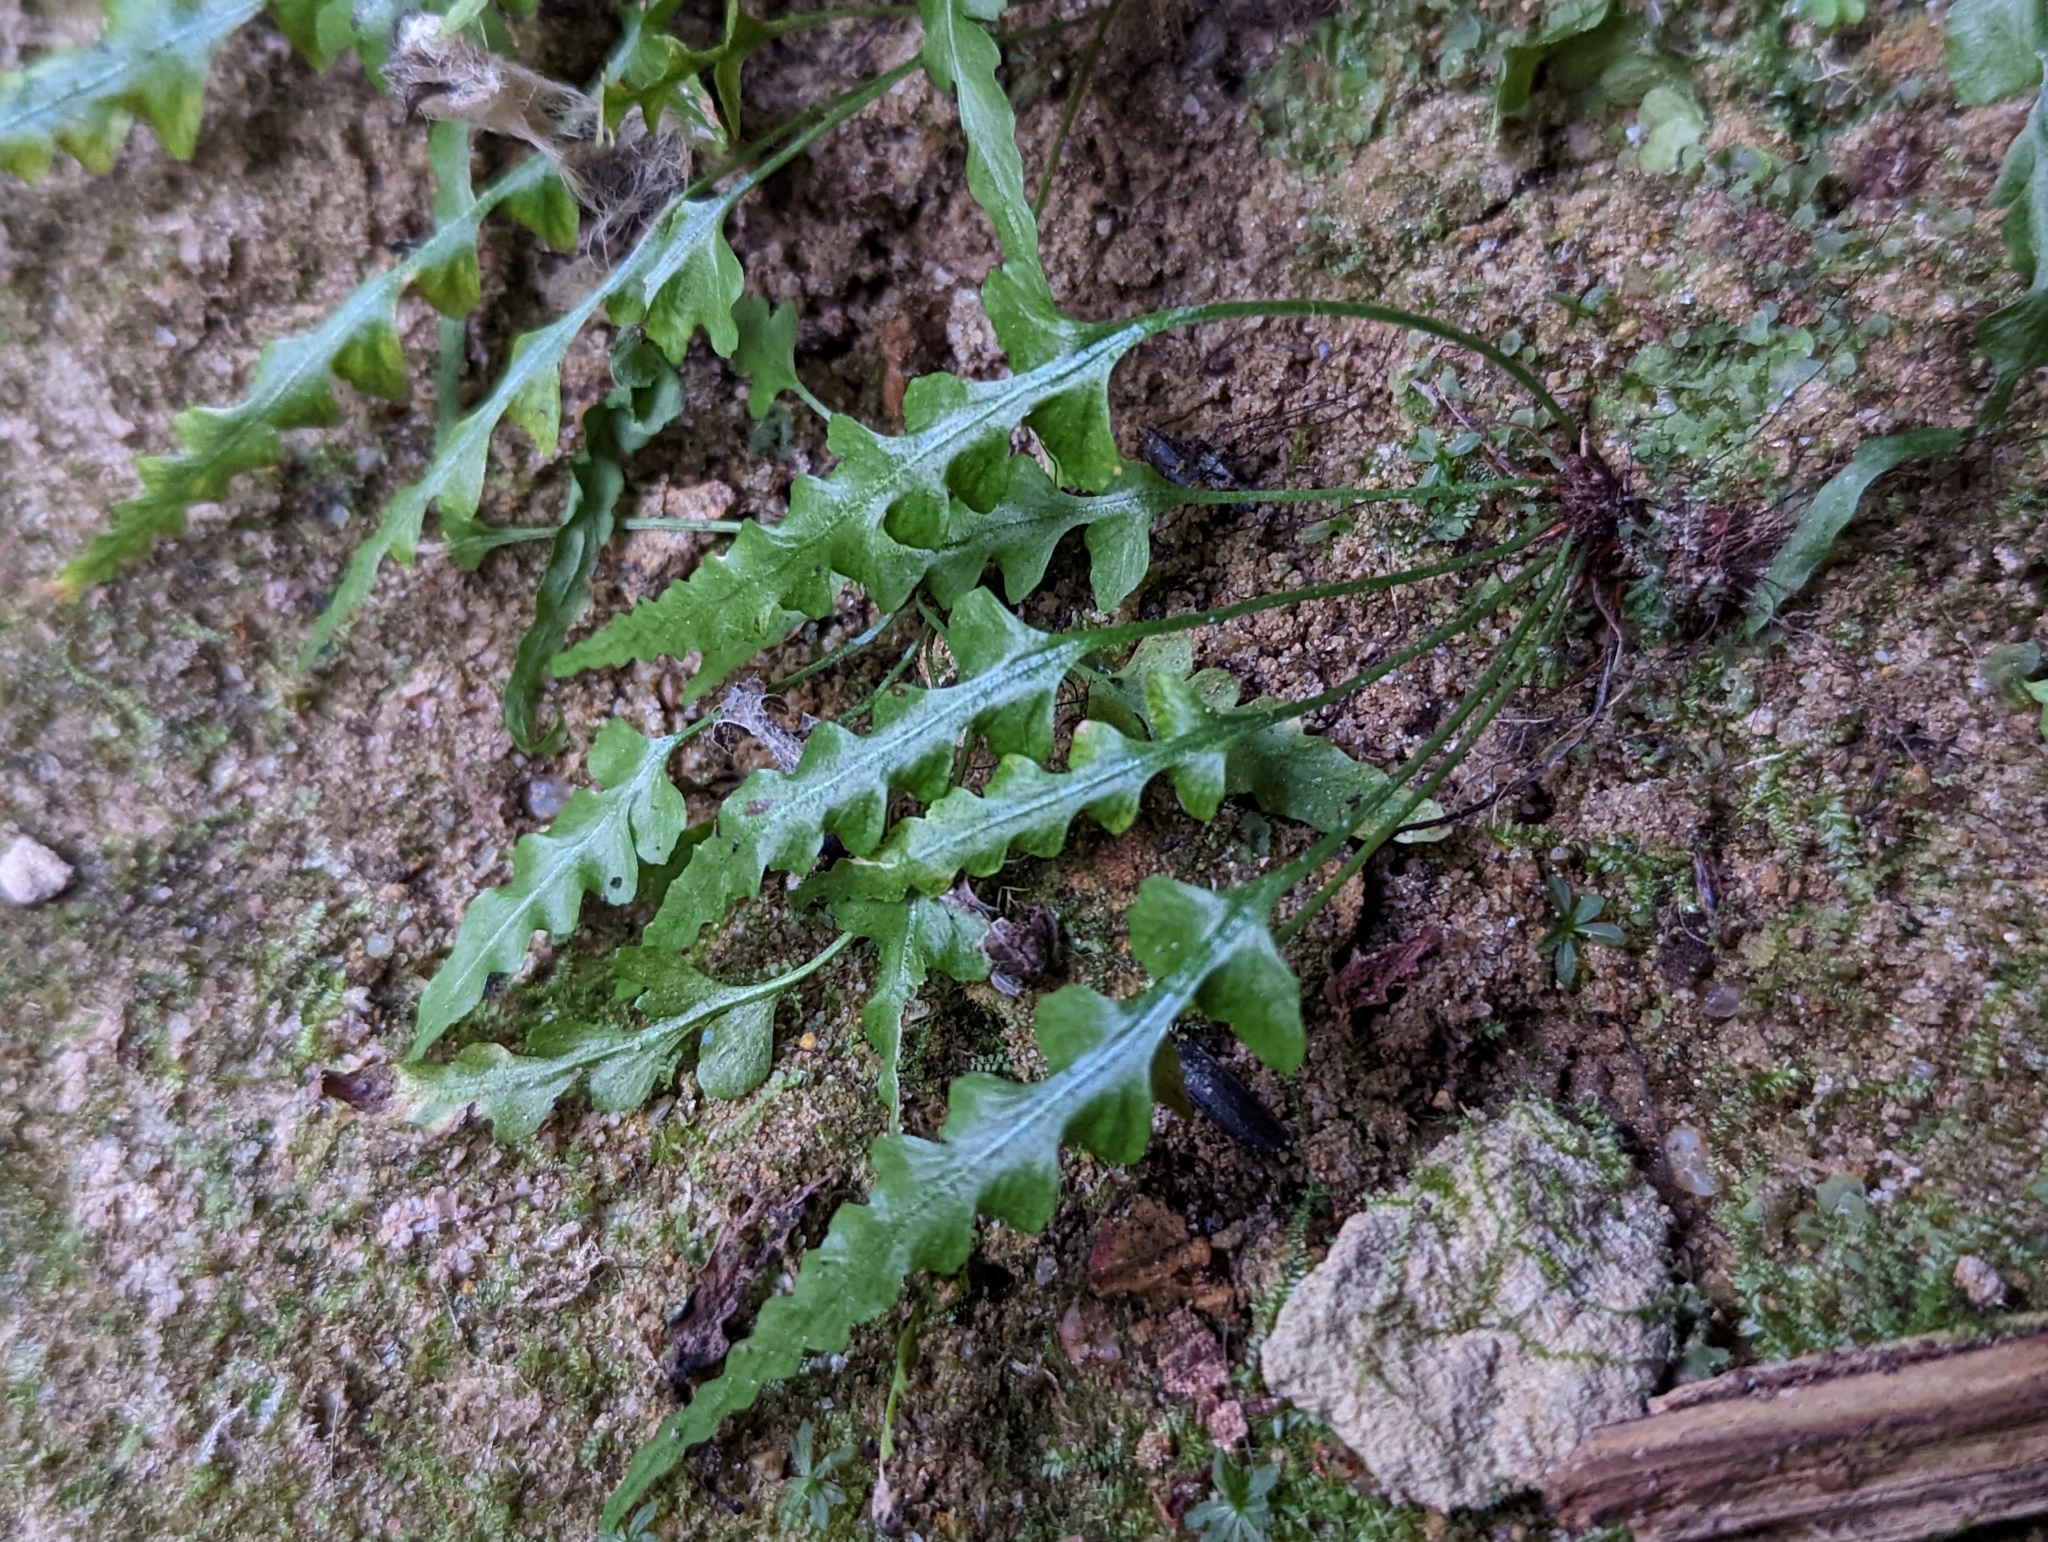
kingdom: Plantae
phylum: Tracheophyta
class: Polypodiopsida
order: Polypodiales
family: Aspleniaceae
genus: Asplenium
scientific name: Asplenium pinnatifidum
